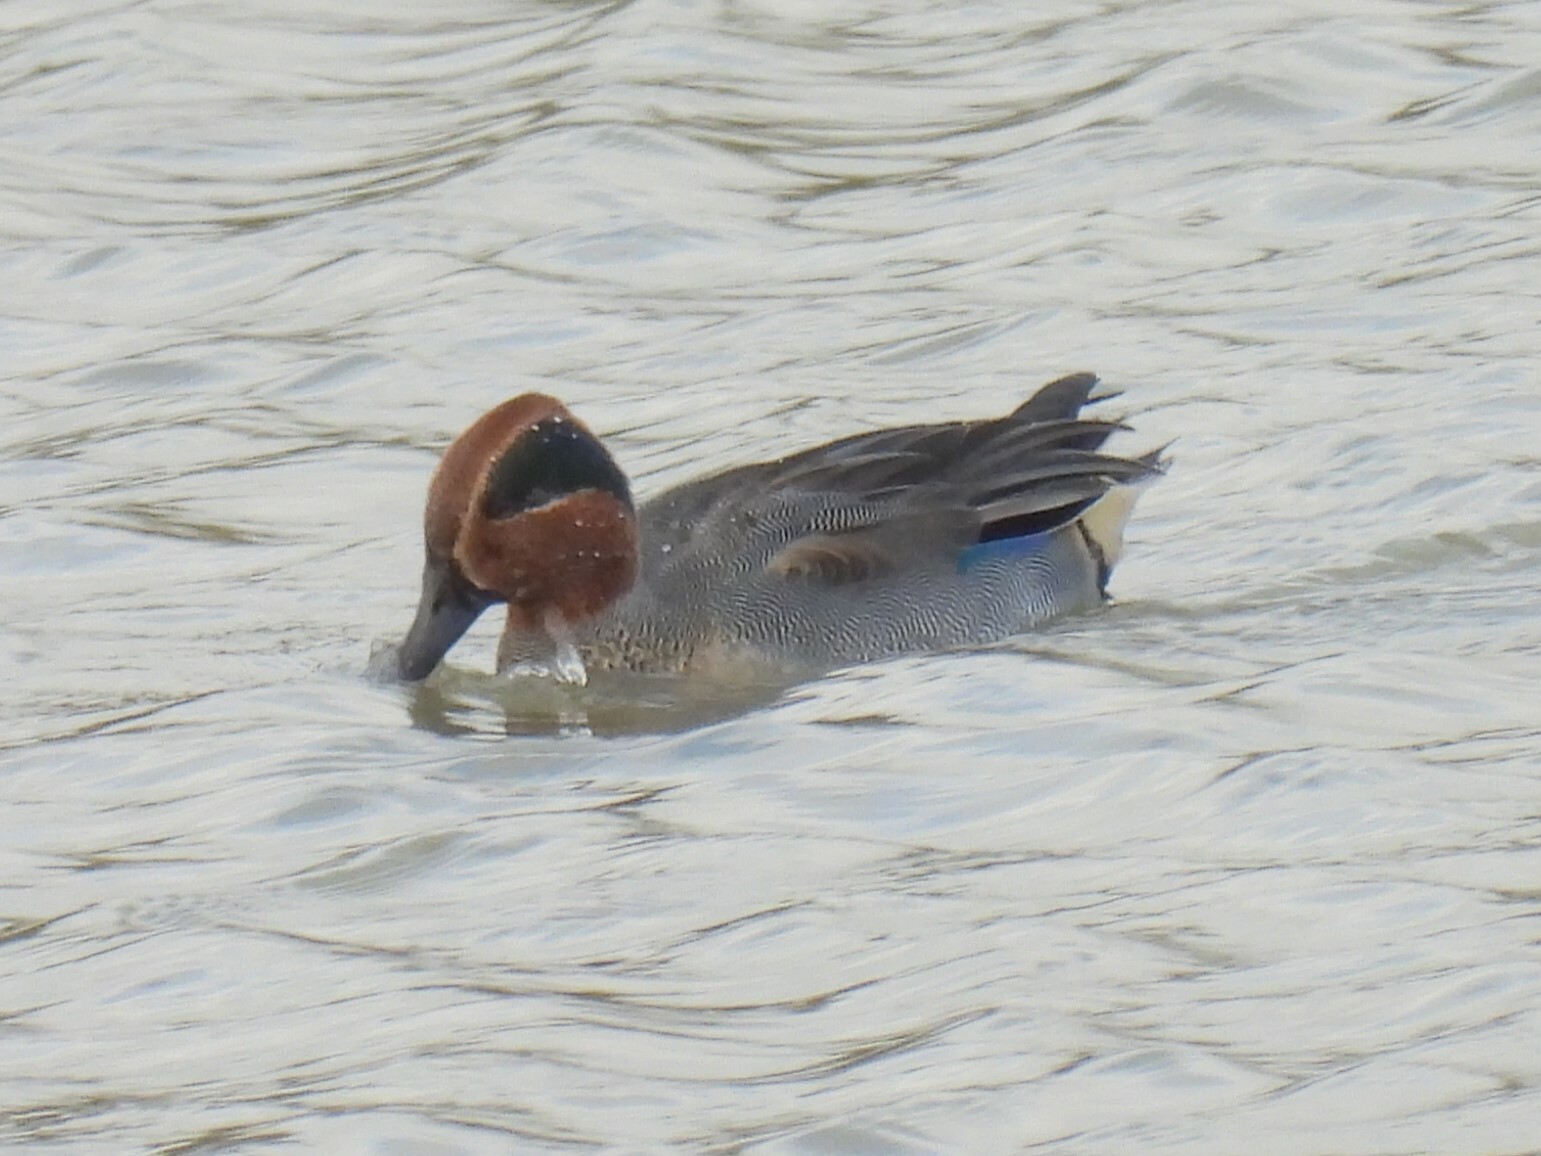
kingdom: Animalia
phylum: Chordata
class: Aves
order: Anseriformes
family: Anatidae
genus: Anas
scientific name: Anas crecca
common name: Eurasian teal
